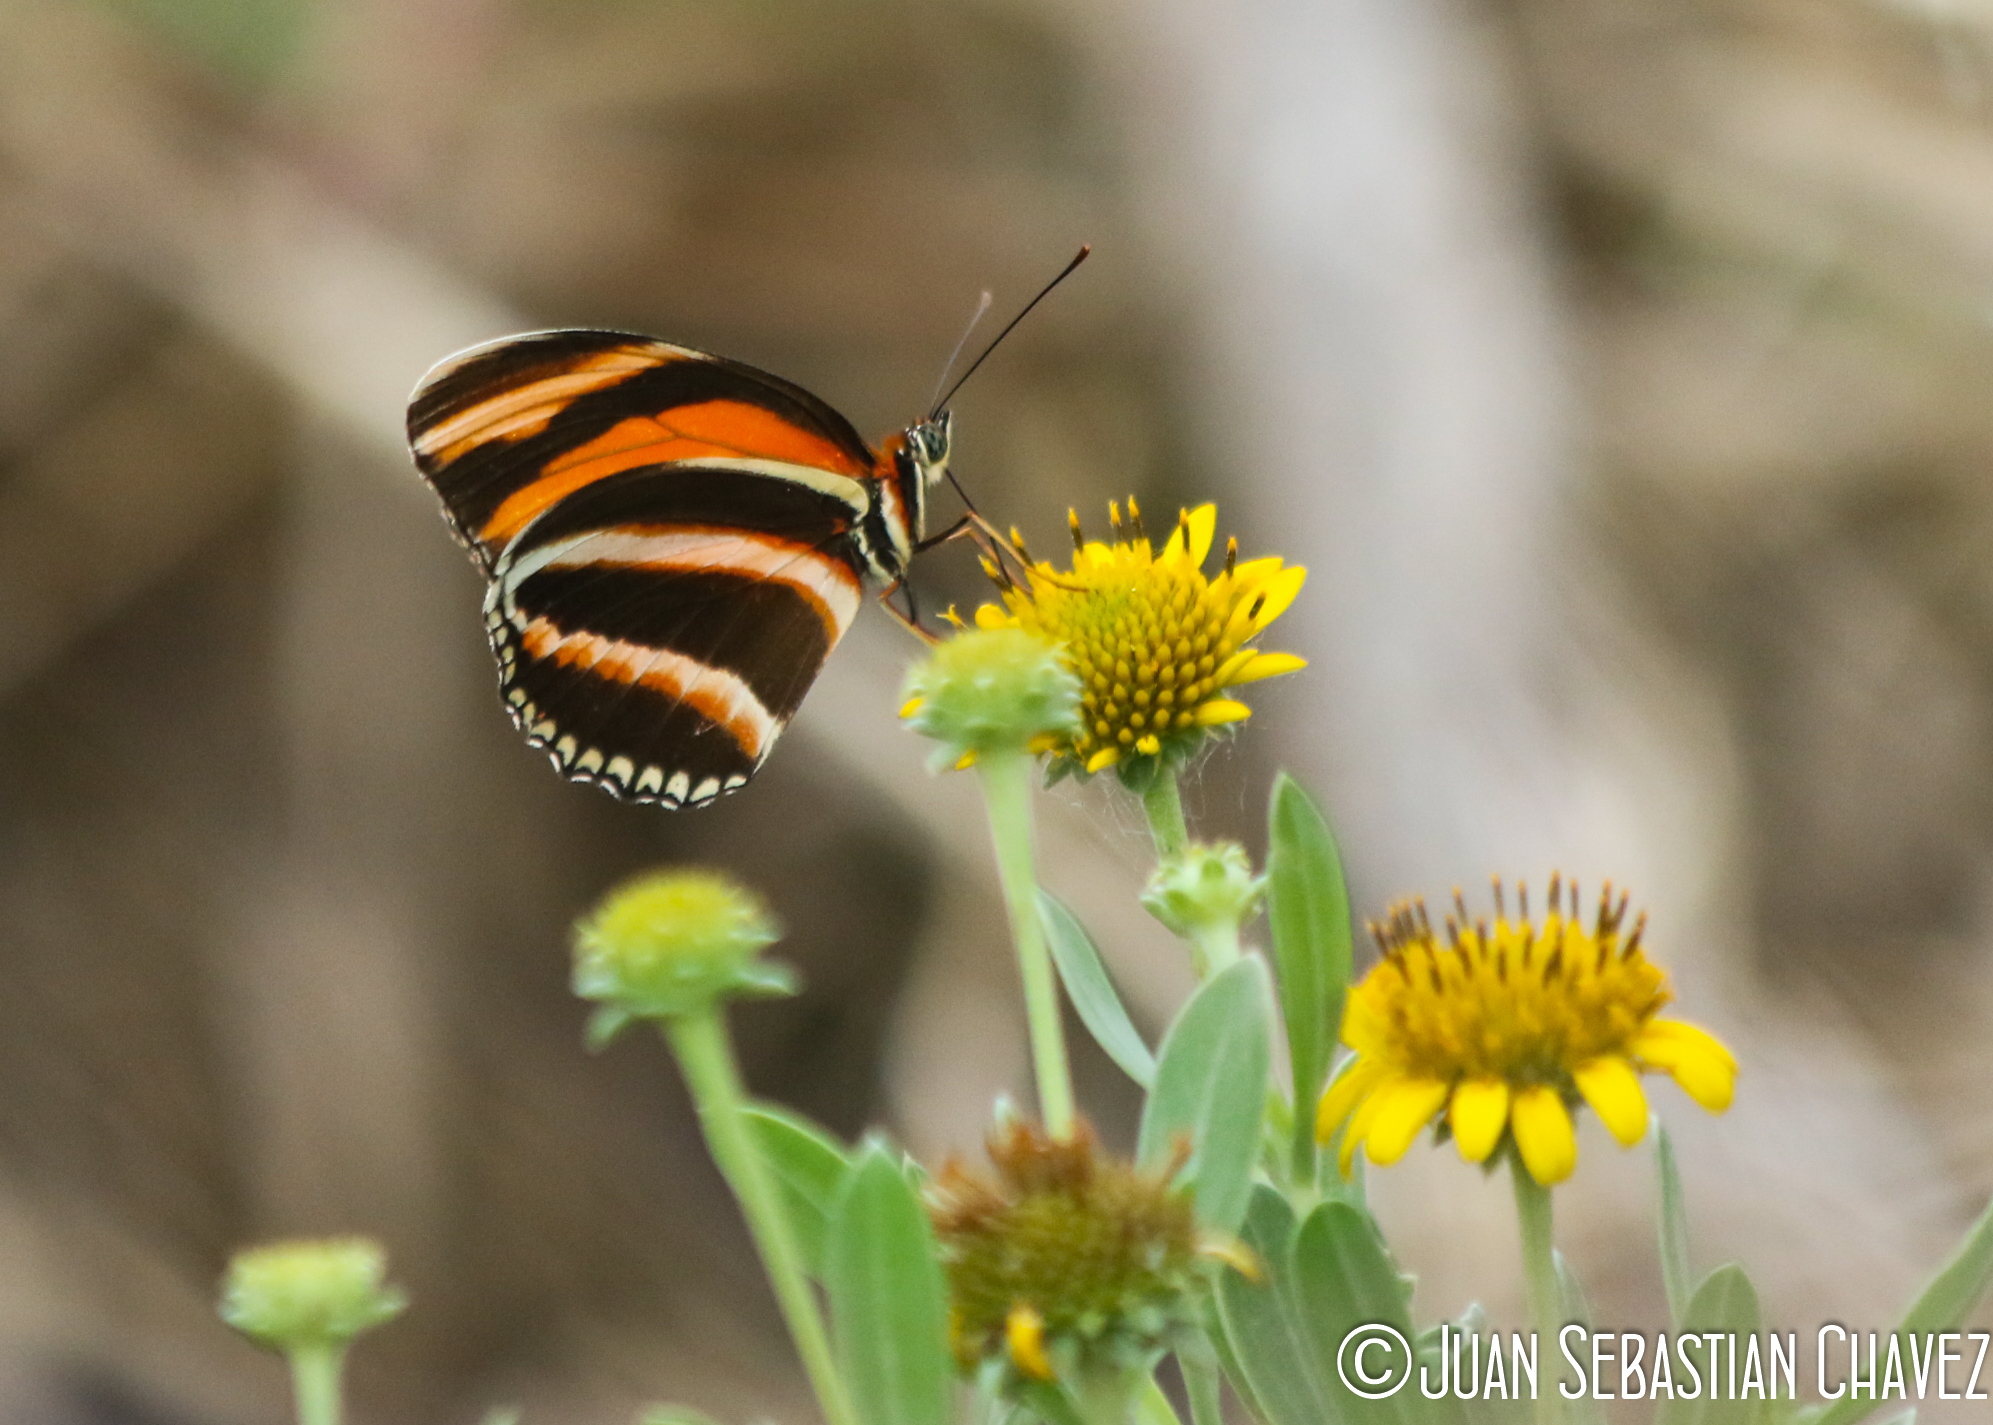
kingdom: Animalia
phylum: Arthropoda
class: Insecta
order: Lepidoptera
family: Nymphalidae
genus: Dryadula
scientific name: Dryadula phaetusa
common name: Banded orange heliconian
